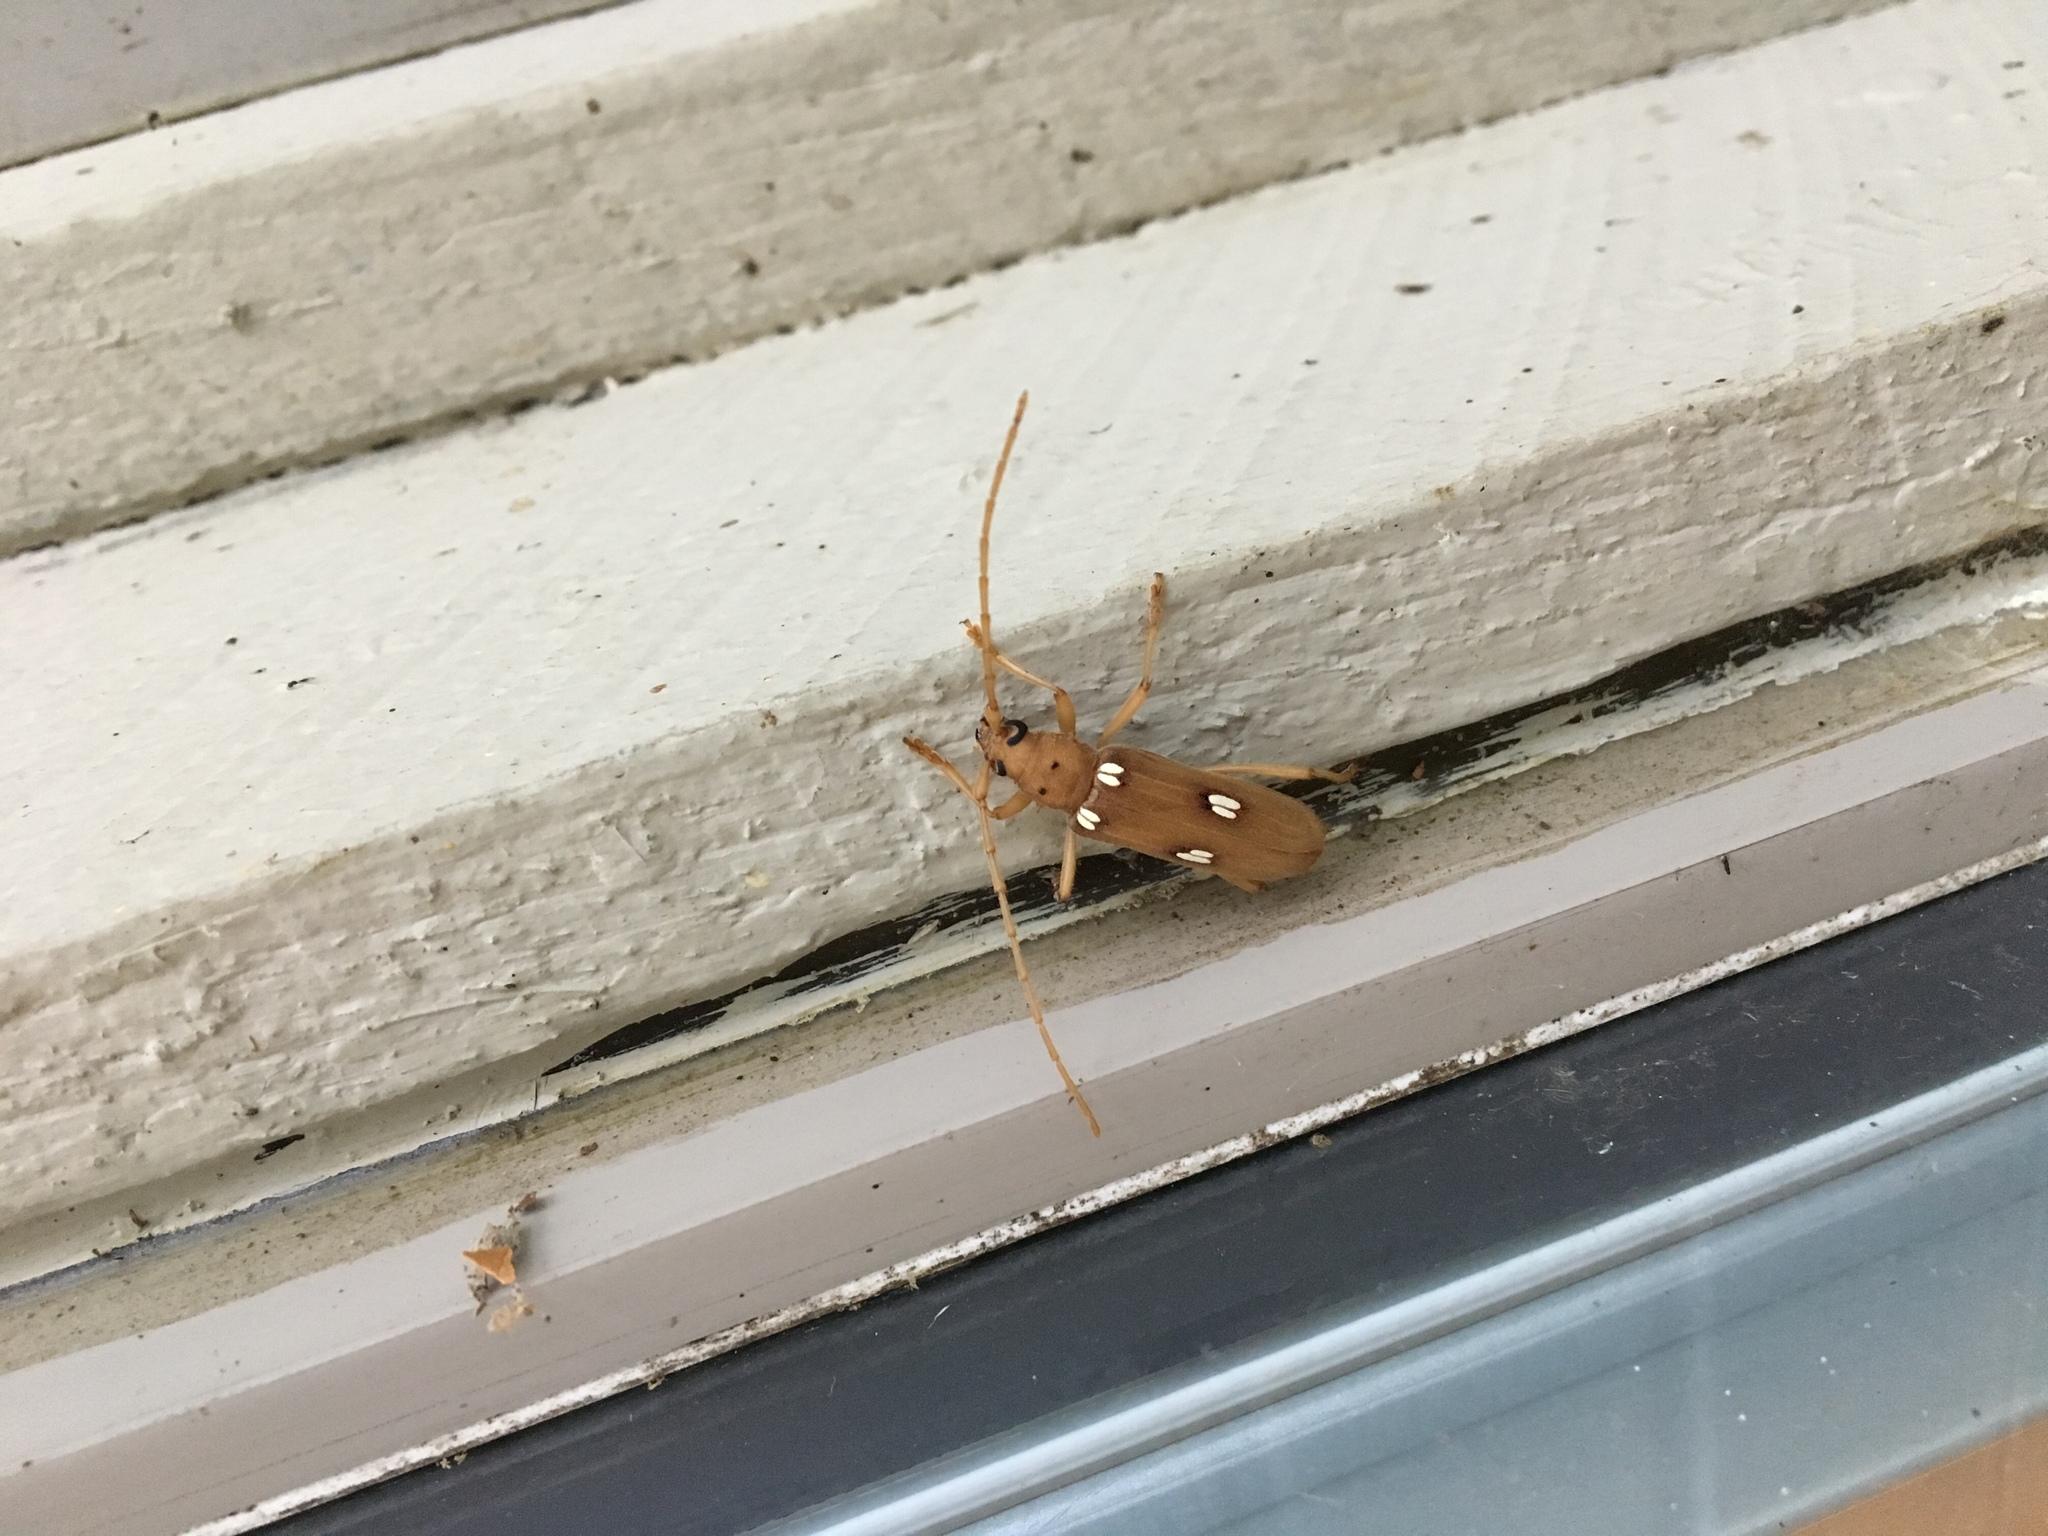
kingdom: Animalia
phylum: Arthropoda
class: Insecta
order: Coleoptera
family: Cerambycidae
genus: Eburia
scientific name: Eburia quadrigeminata
